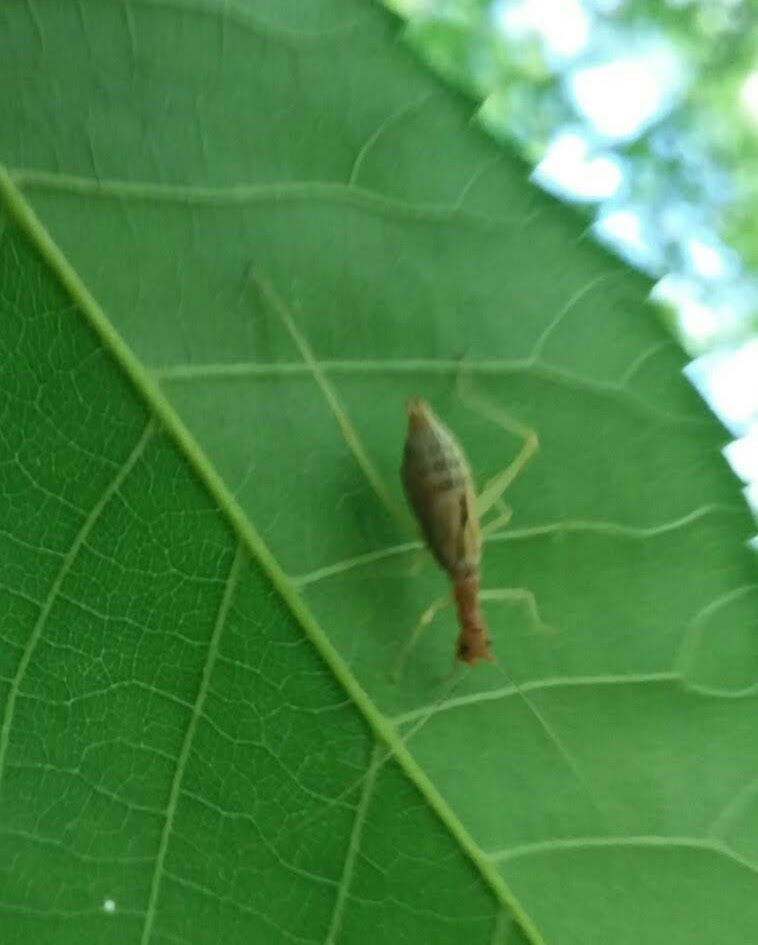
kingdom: Animalia
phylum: Arthropoda
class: Insecta
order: Orthoptera
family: Gryllidae
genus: Neoxabea
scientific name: Neoxabea bipunctata
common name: Two-spotted tree cricket
